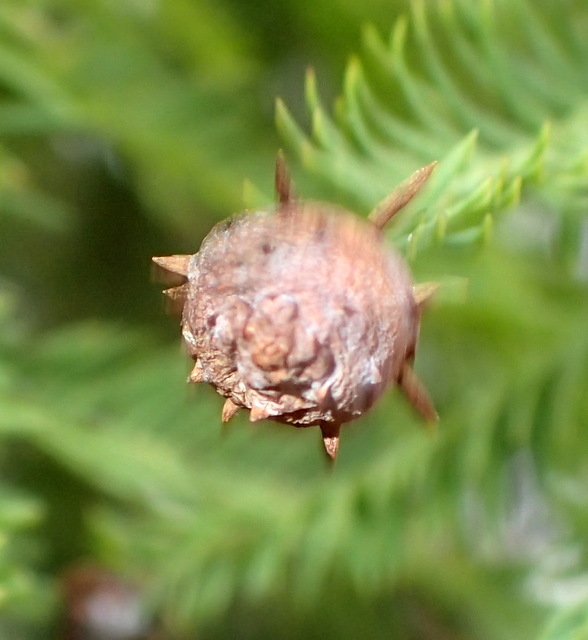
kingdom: Animalia
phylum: Arthropoda
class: Insecta
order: Diptera
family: Cecidomyiidae
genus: Taxodiomyia
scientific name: Taxodiomyia cupressiananassa
